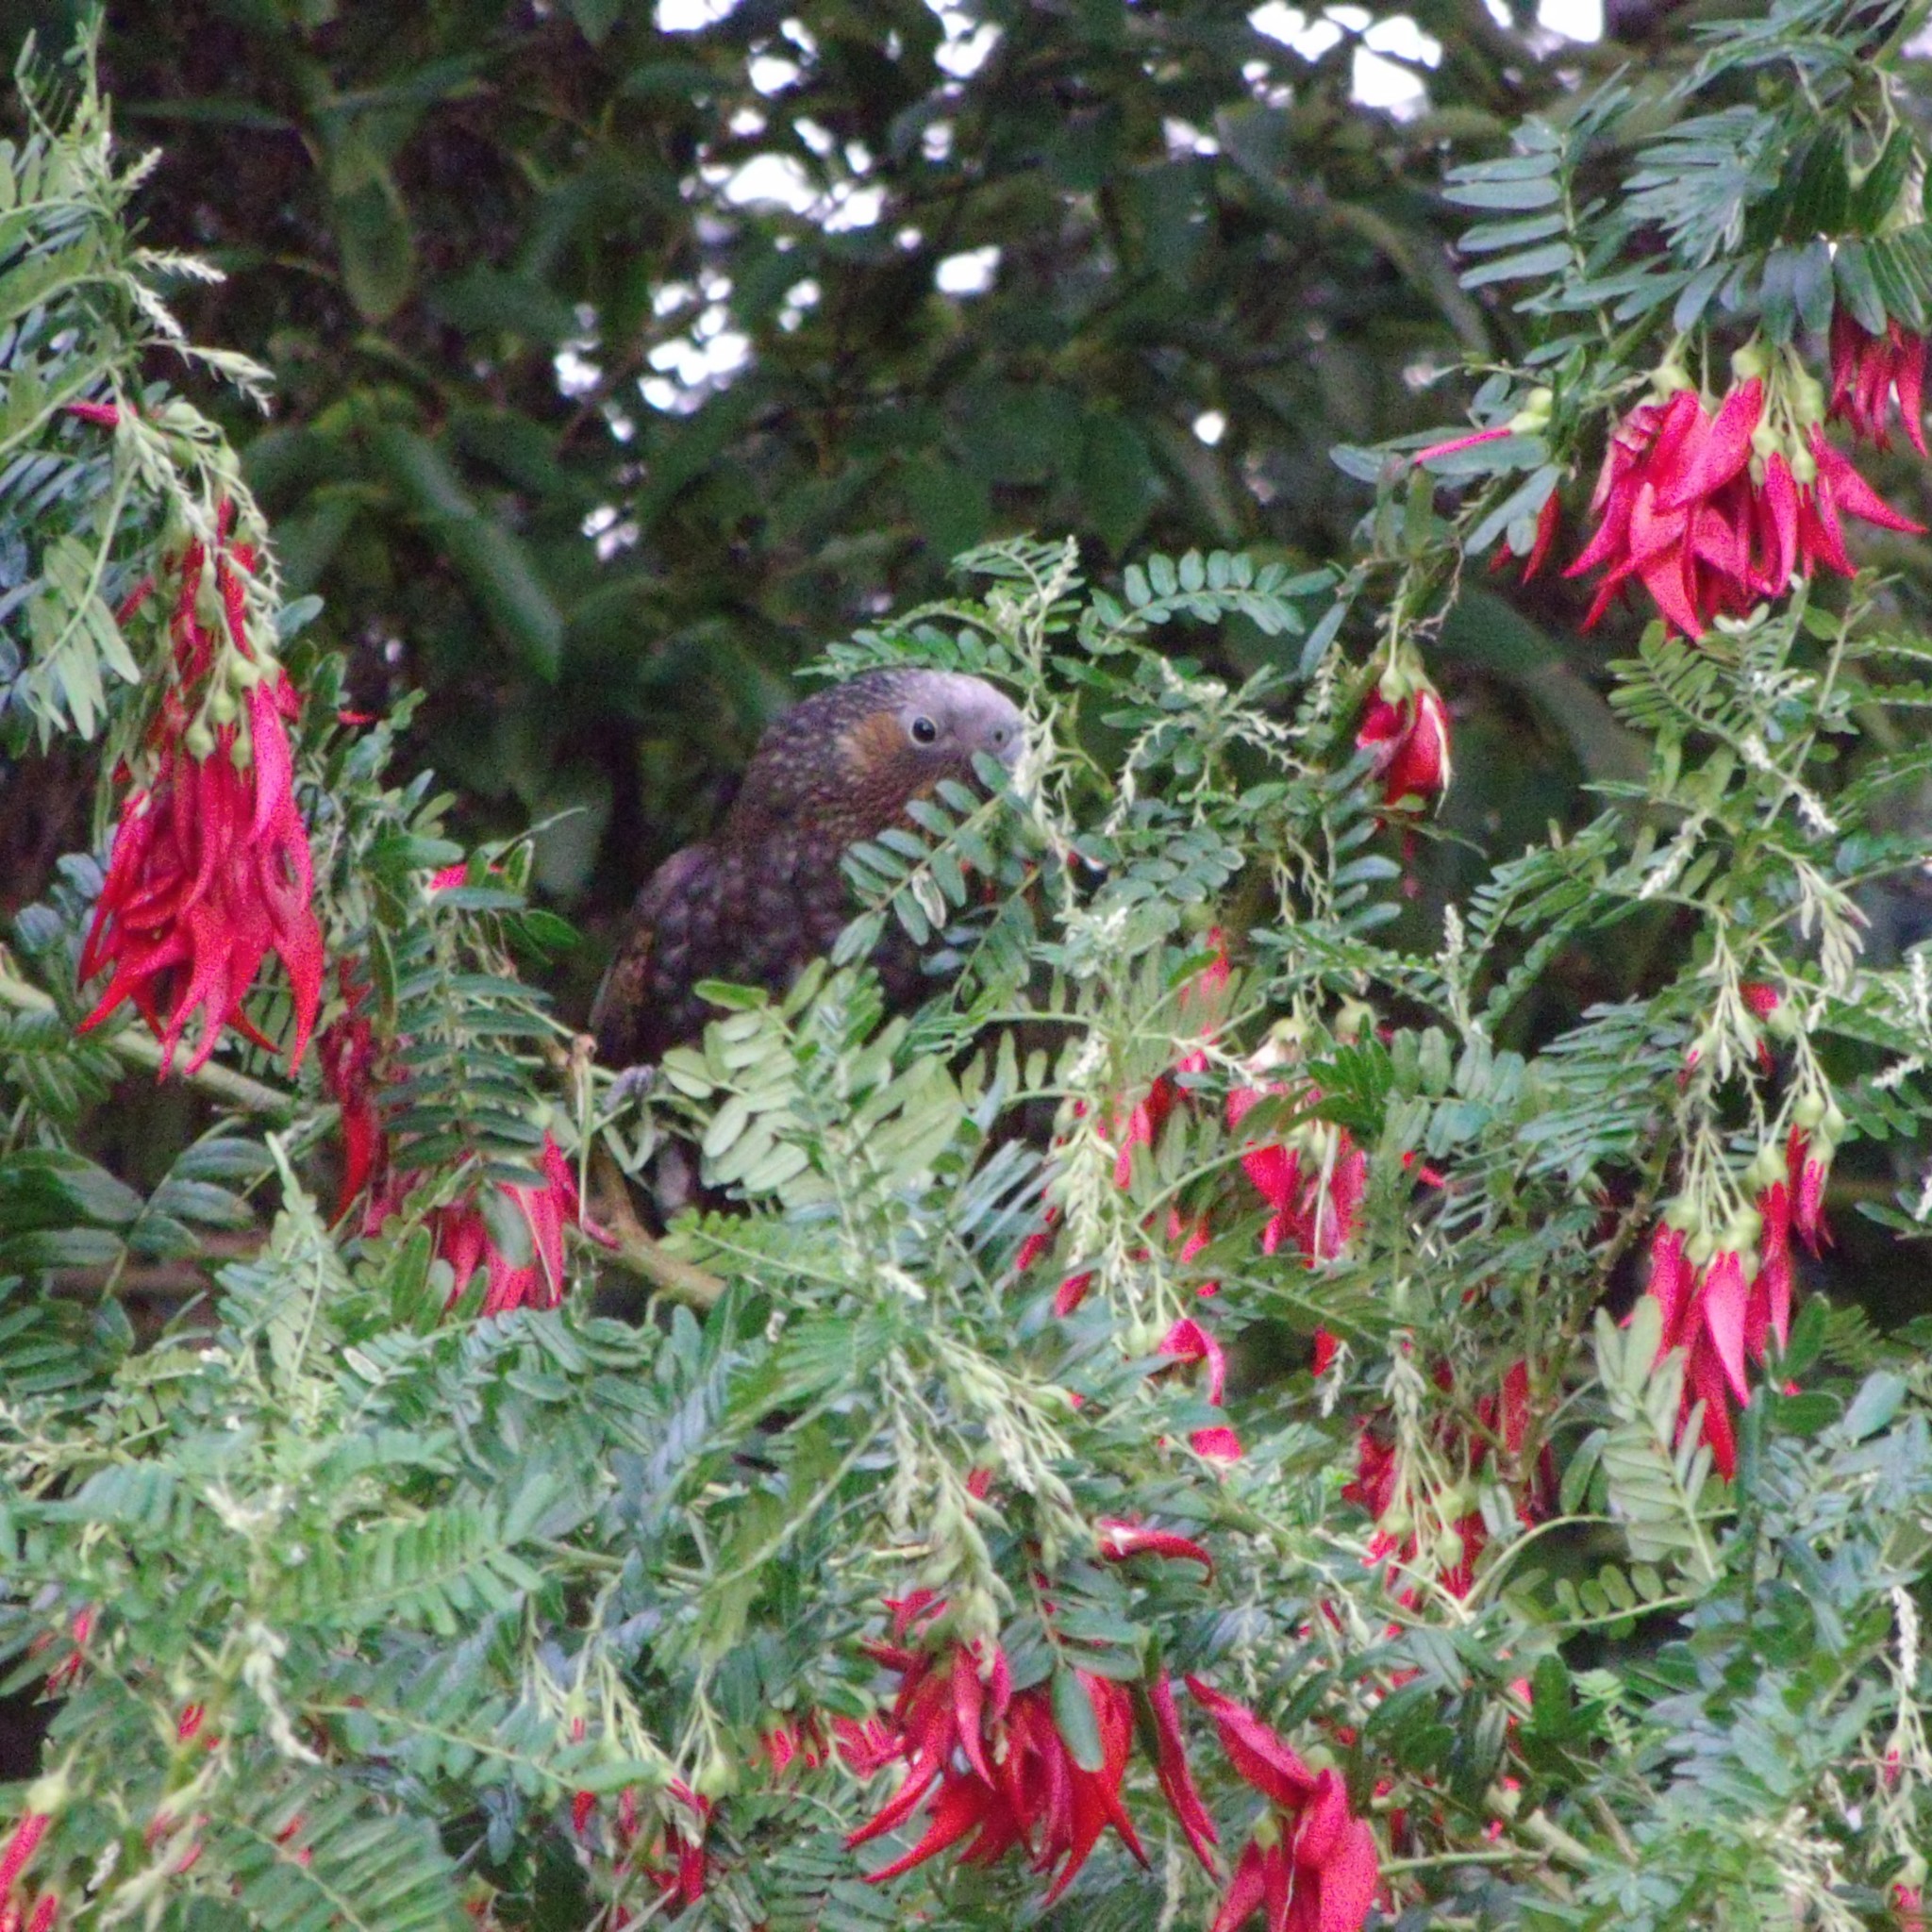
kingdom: Animalia
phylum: Chordata
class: Aves
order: Psittaciformes
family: Psittacidae
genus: Nestor
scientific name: Nestor meridionalis
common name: New zealand kaka
